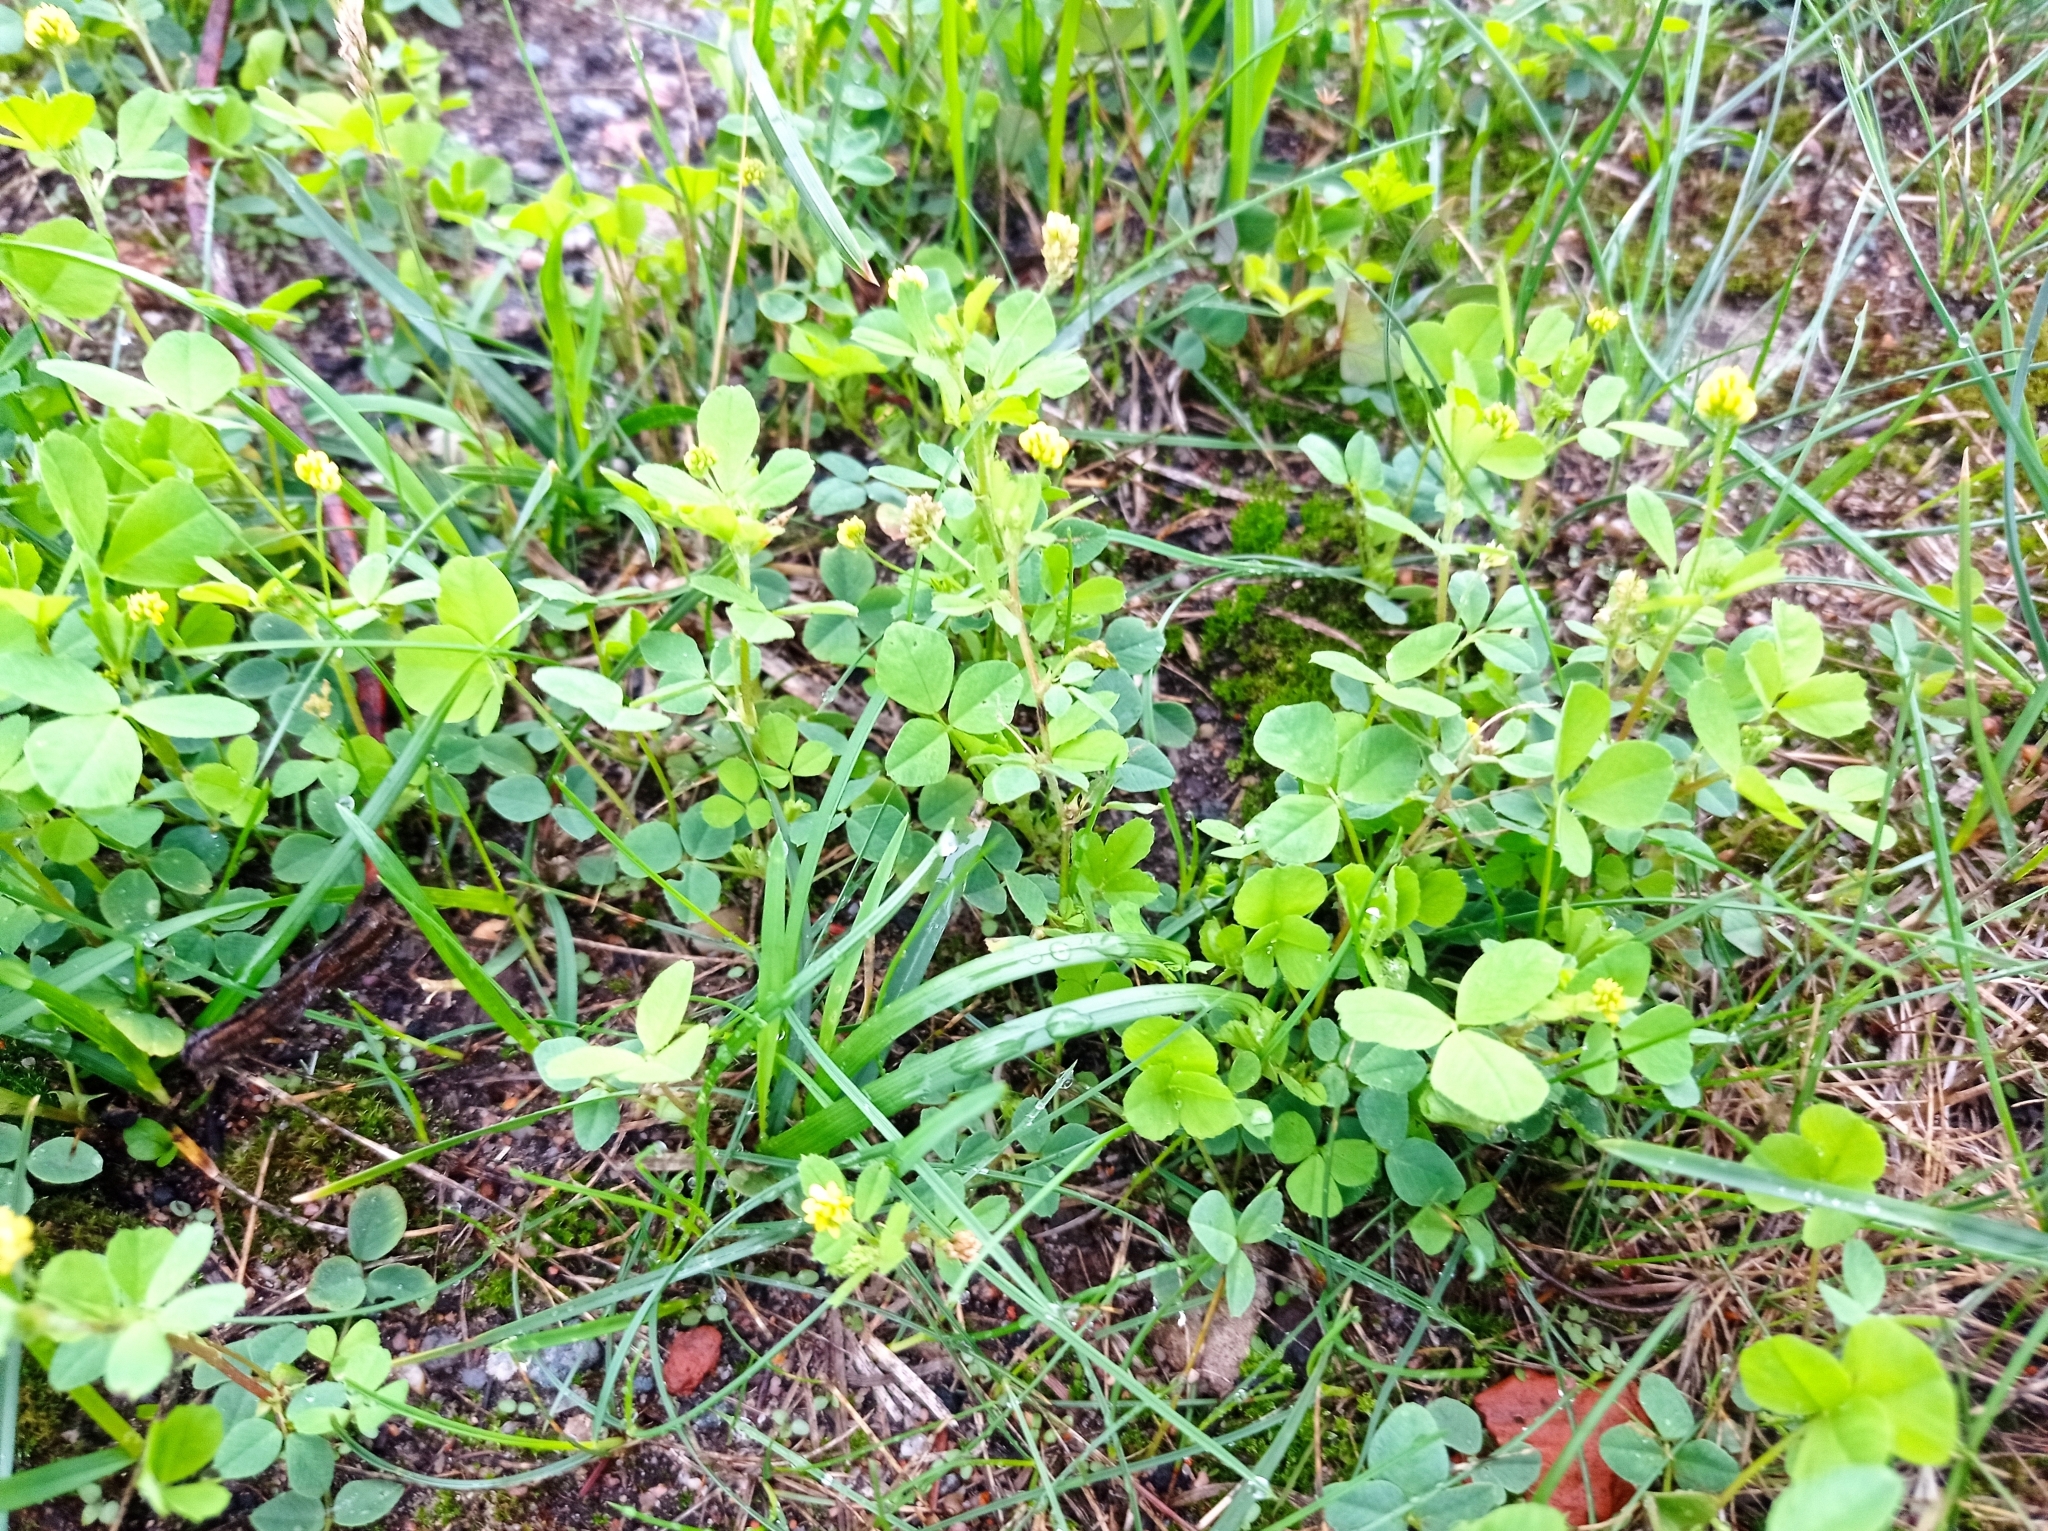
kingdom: Plantae
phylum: Tracheophyta
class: Magnoliopsida
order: Fabales
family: Fabaceae
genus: Medicago
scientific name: Medicago lupulina
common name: Black medick
